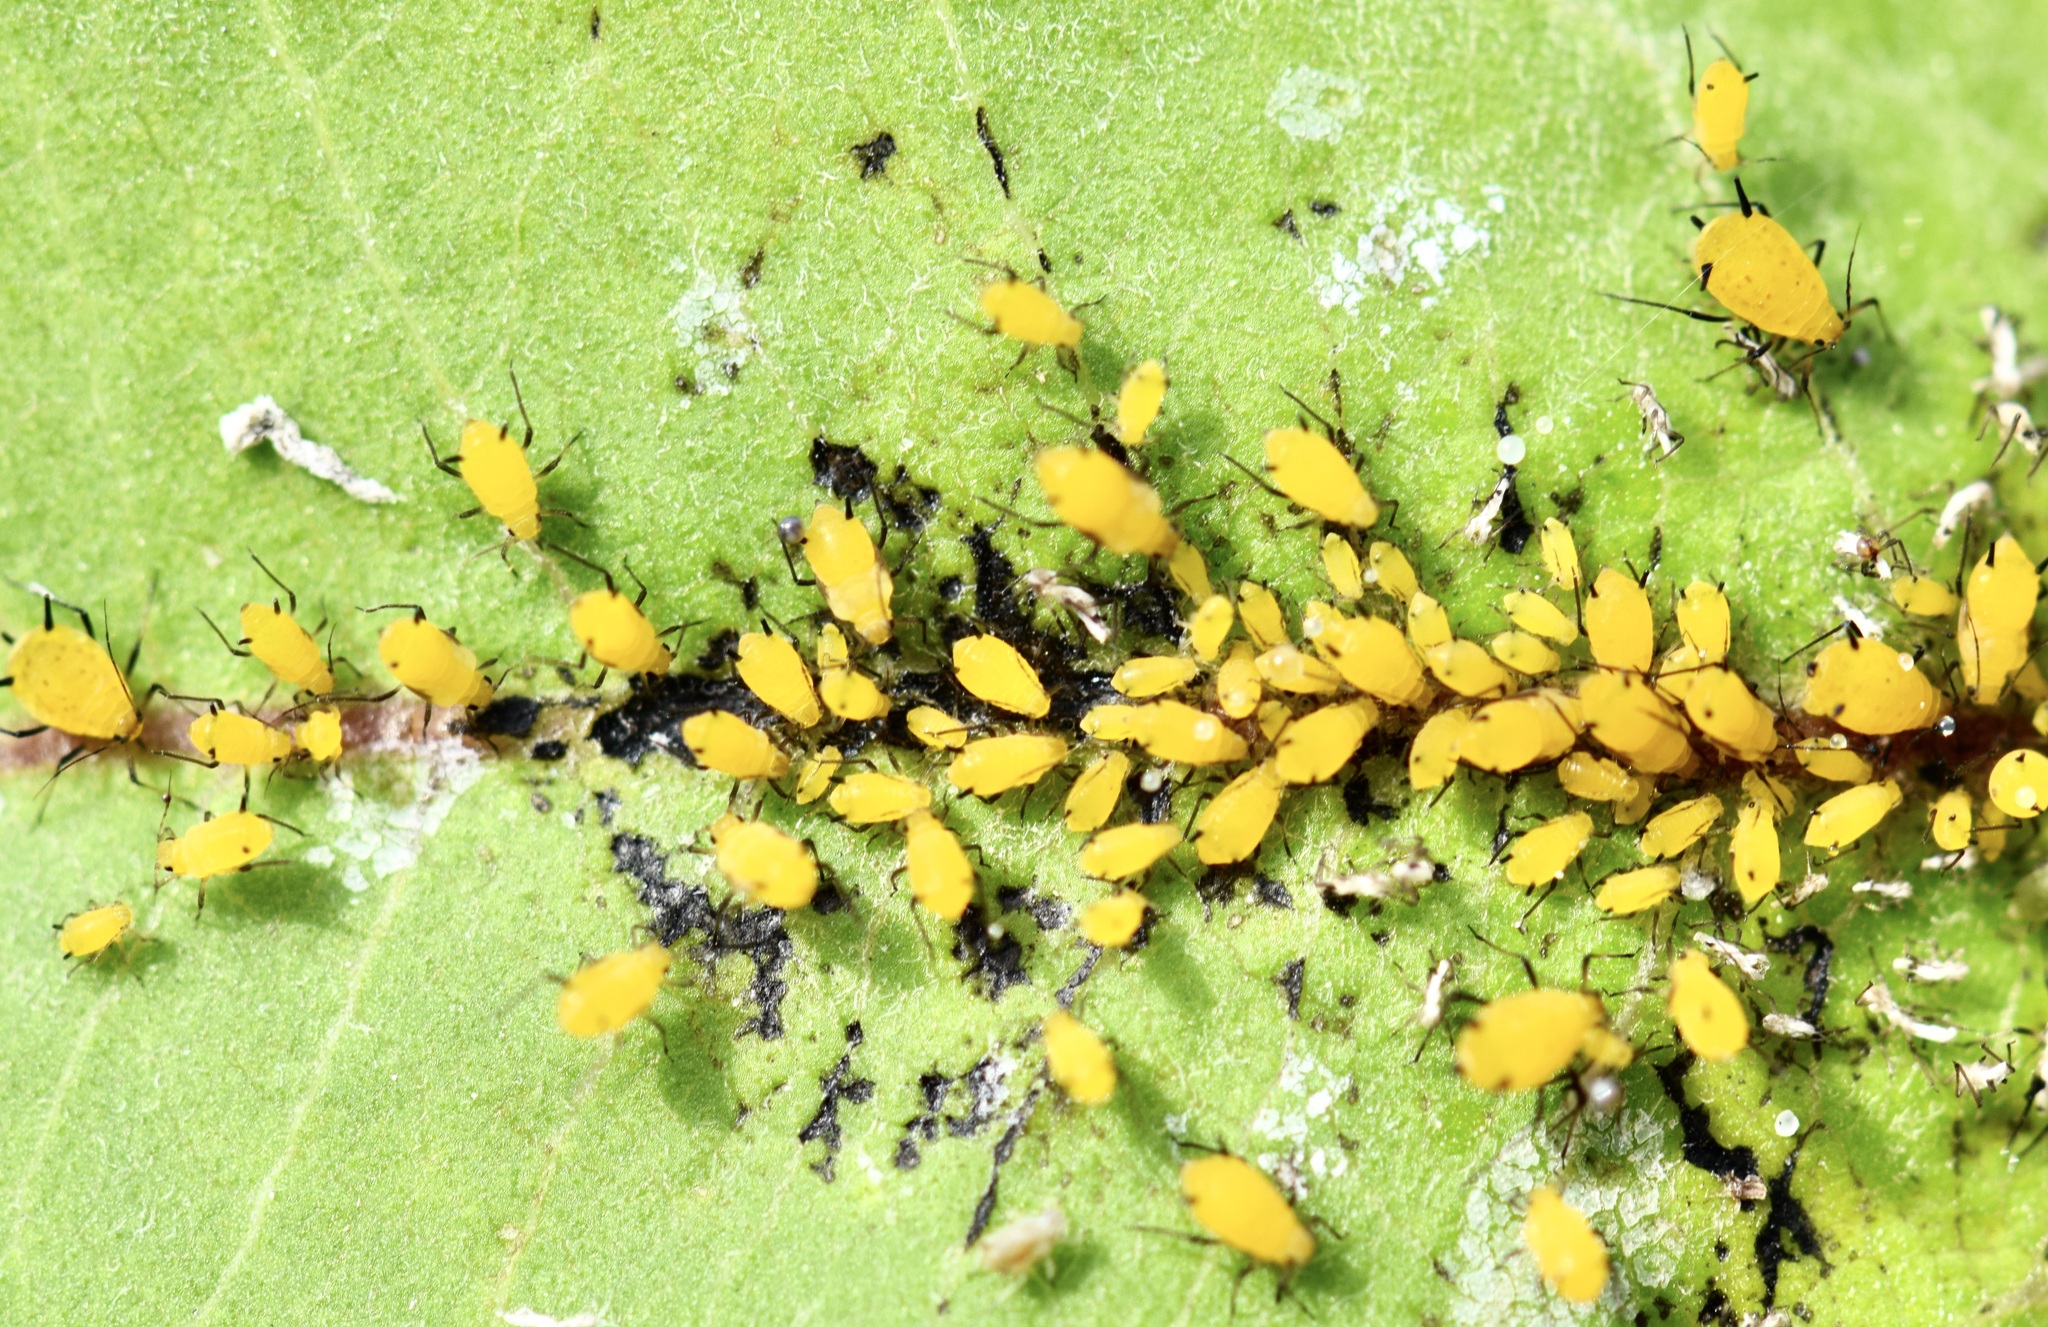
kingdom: Animalia
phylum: Arthropoda
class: Insecta
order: Hemiptera
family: Aphididae
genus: Aphis
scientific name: Aphis nerii
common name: Oleander aphid
